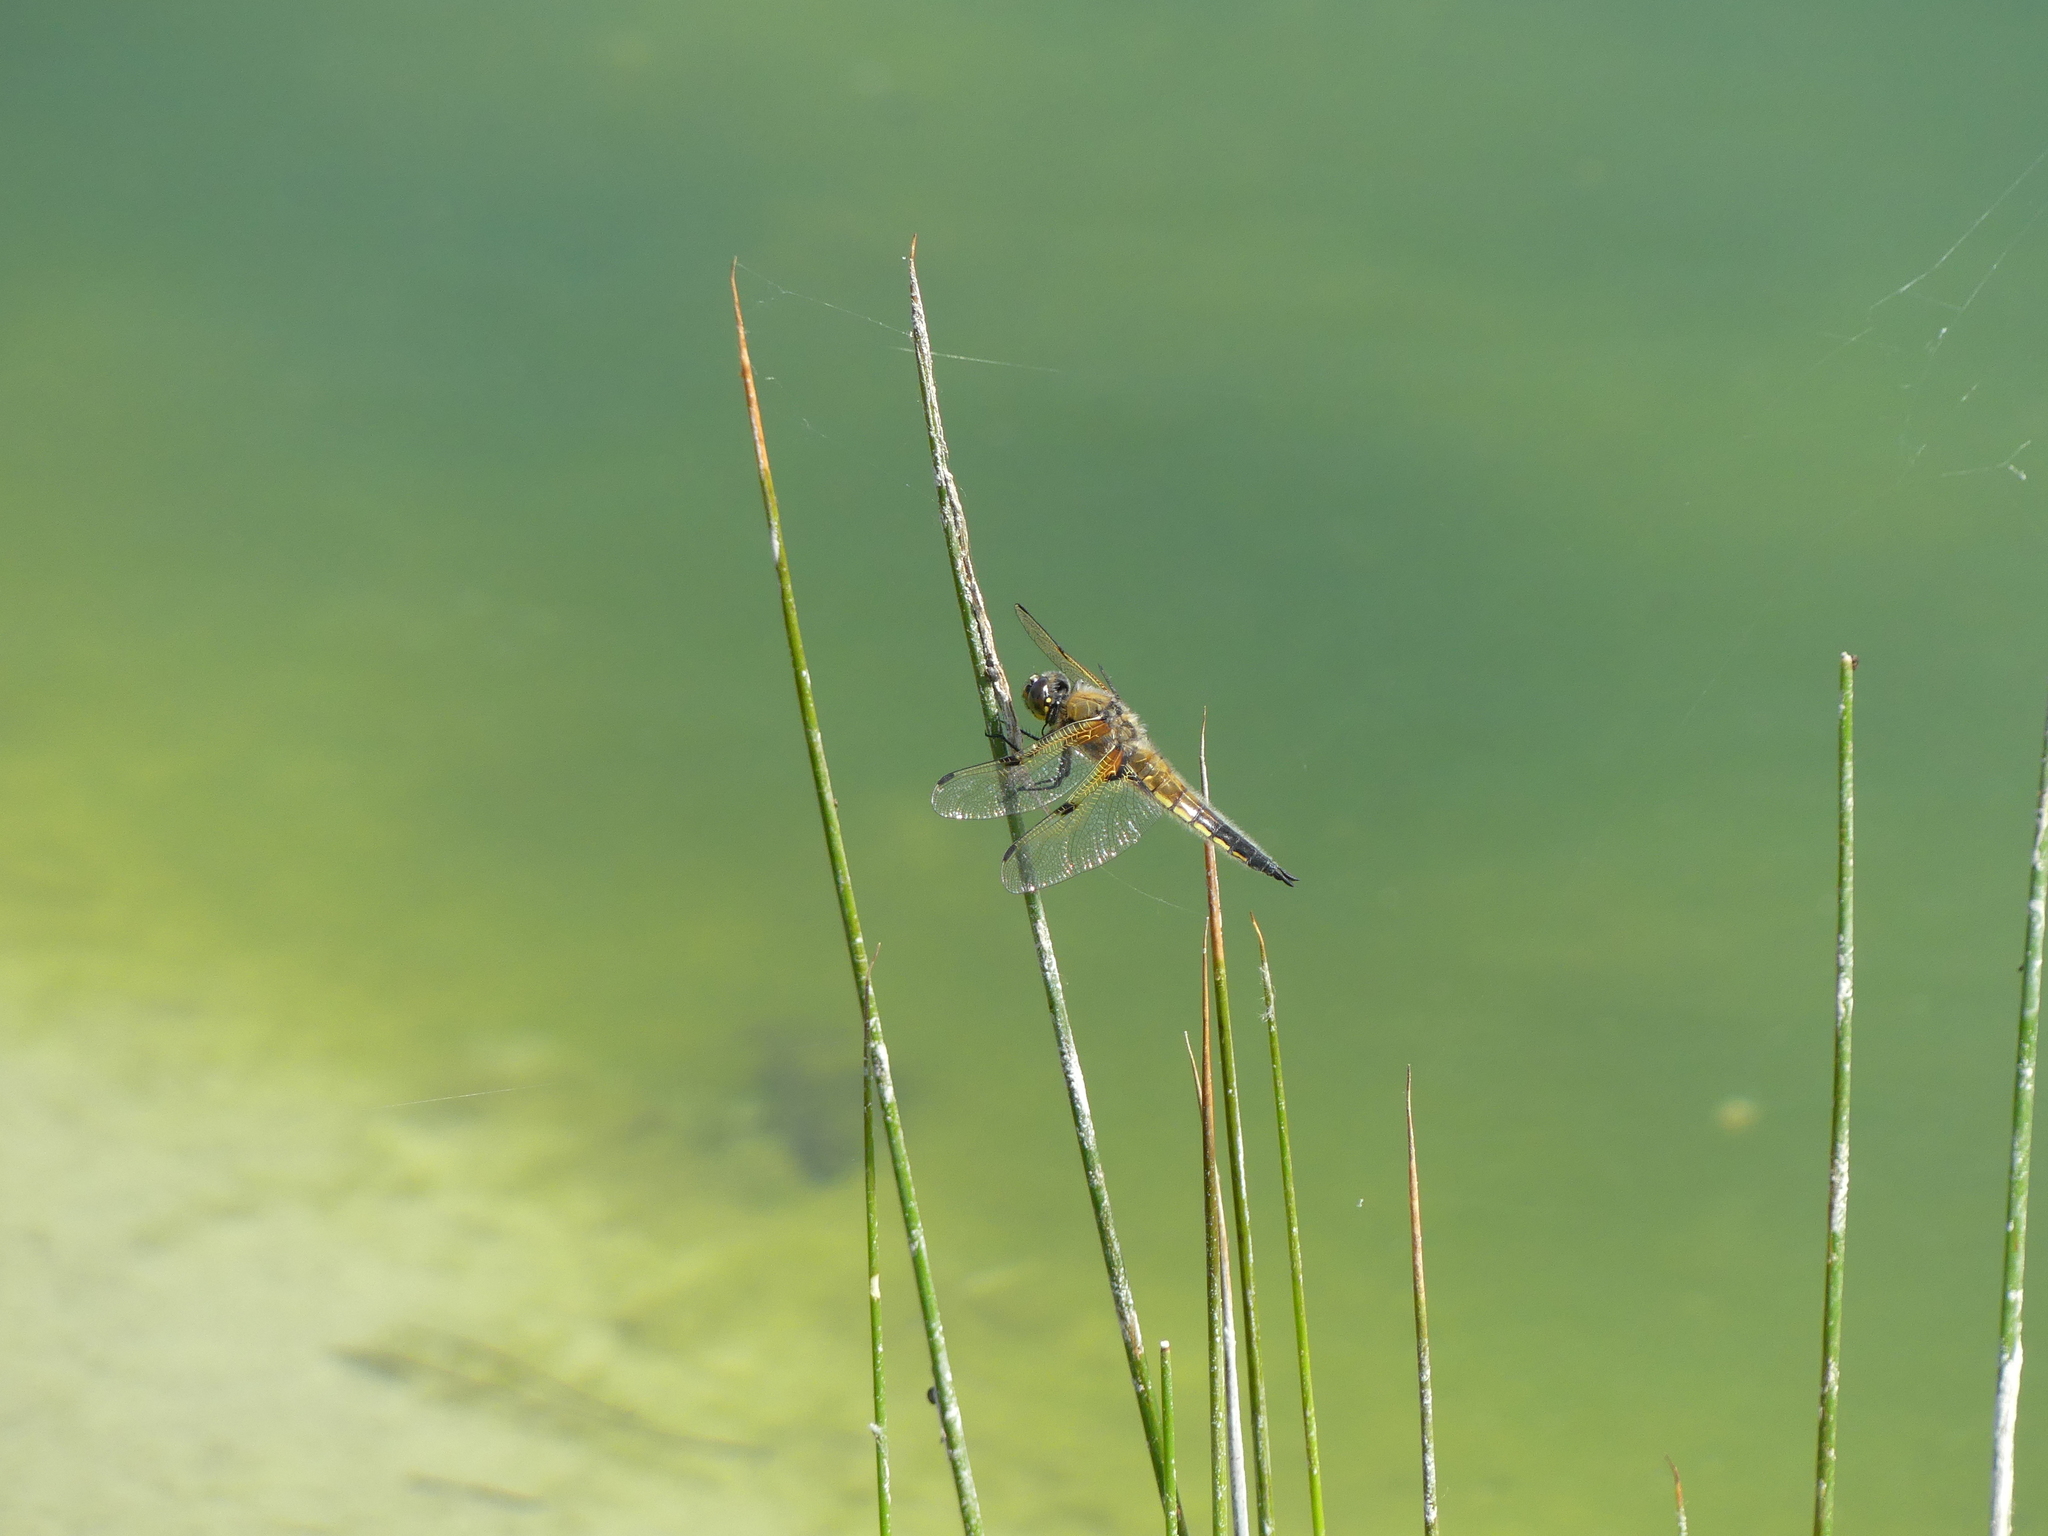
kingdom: Animalia
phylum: Arthropoda
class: Insecta
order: Odonata
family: Libellulidae
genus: Libellula
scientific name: Libellula quadrimaculata
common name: Four-spotted chaser
